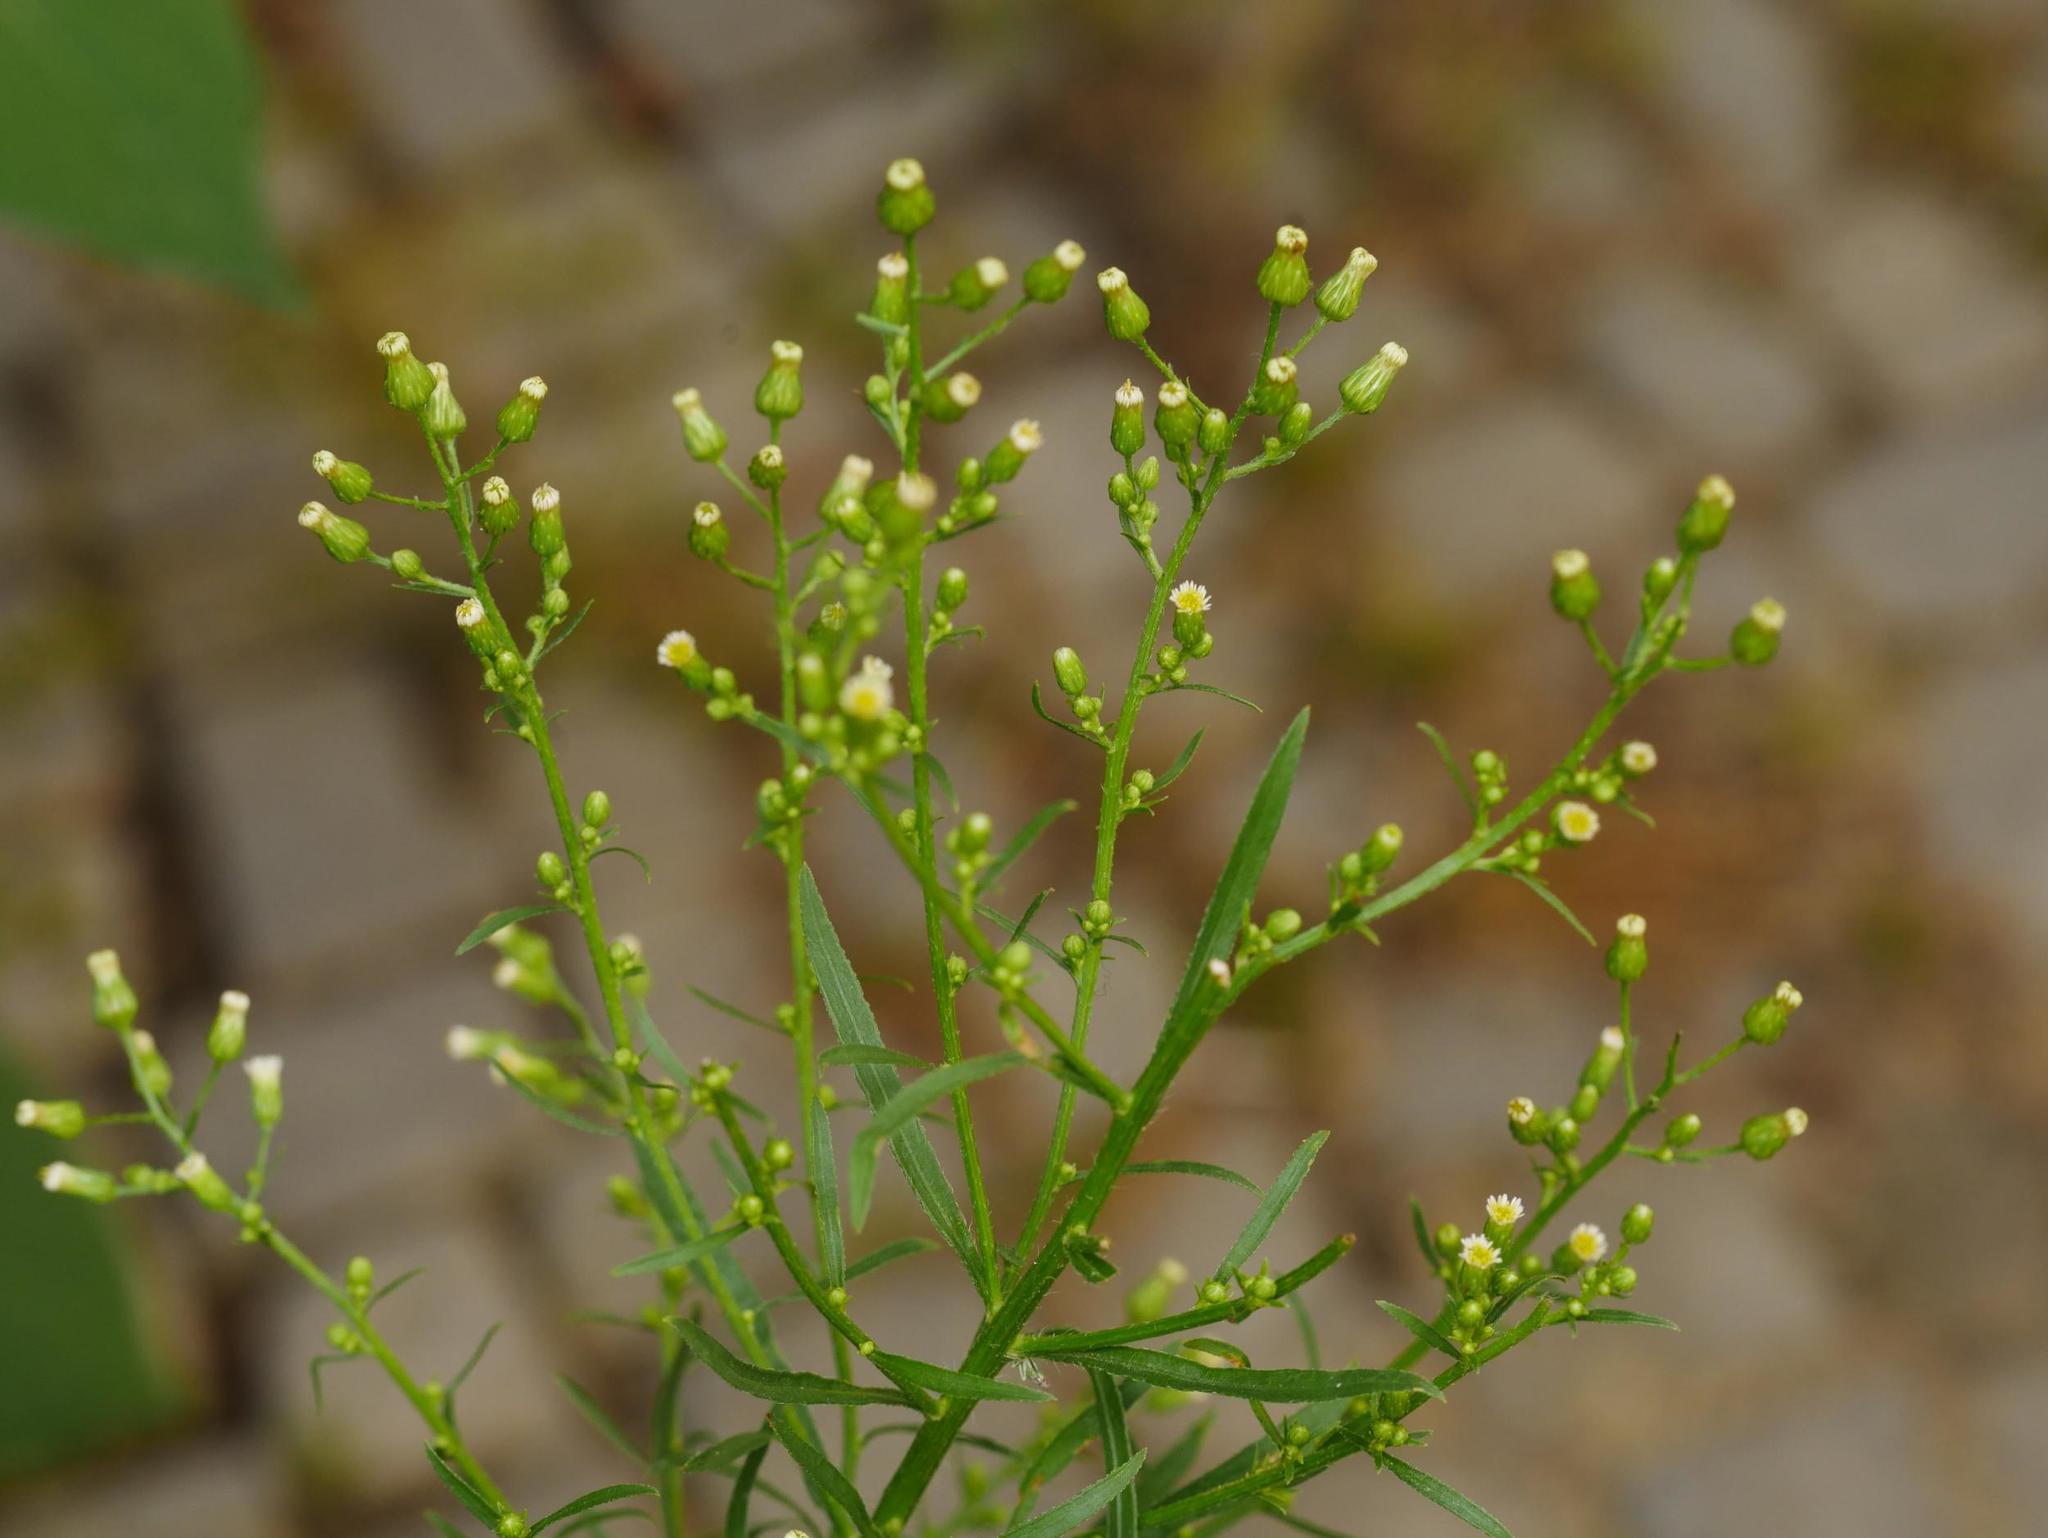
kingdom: Plantae
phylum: Tracheophyta
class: Magnoliopsida
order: Asterales
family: Asteraceae
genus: Erigeron
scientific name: Erigeron canadensis
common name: Canadian fleabane
